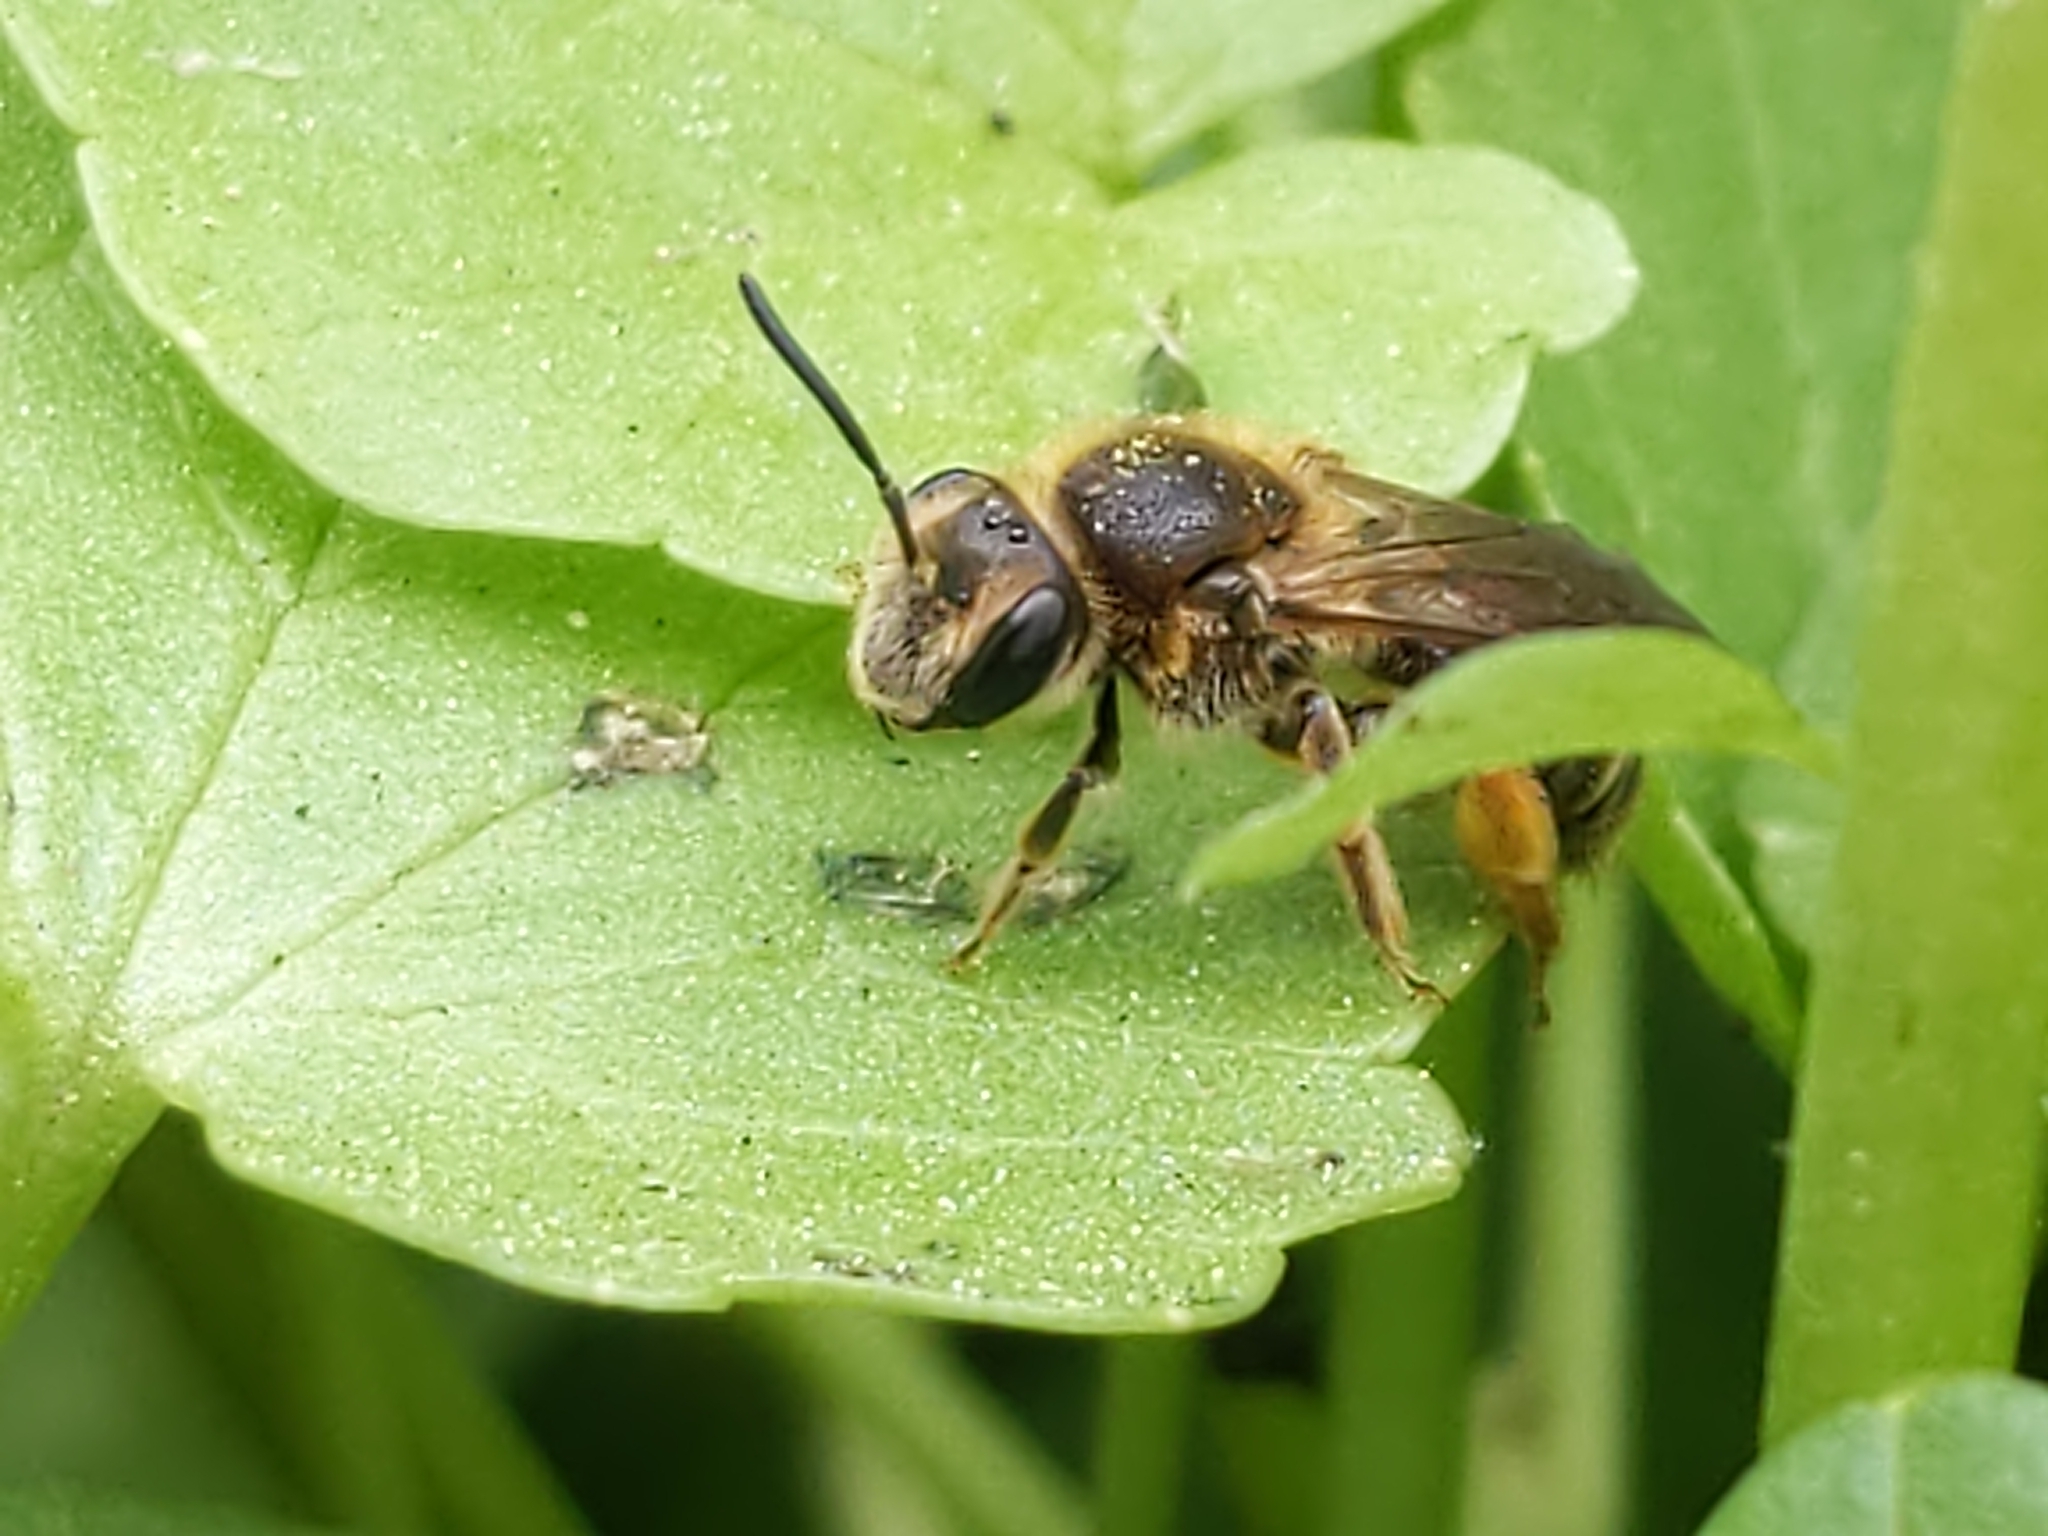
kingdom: Animalia
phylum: Arthropoda
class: Insecta
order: Hymenoptera
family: Andrenidae
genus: Andrena
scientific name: Andrena
